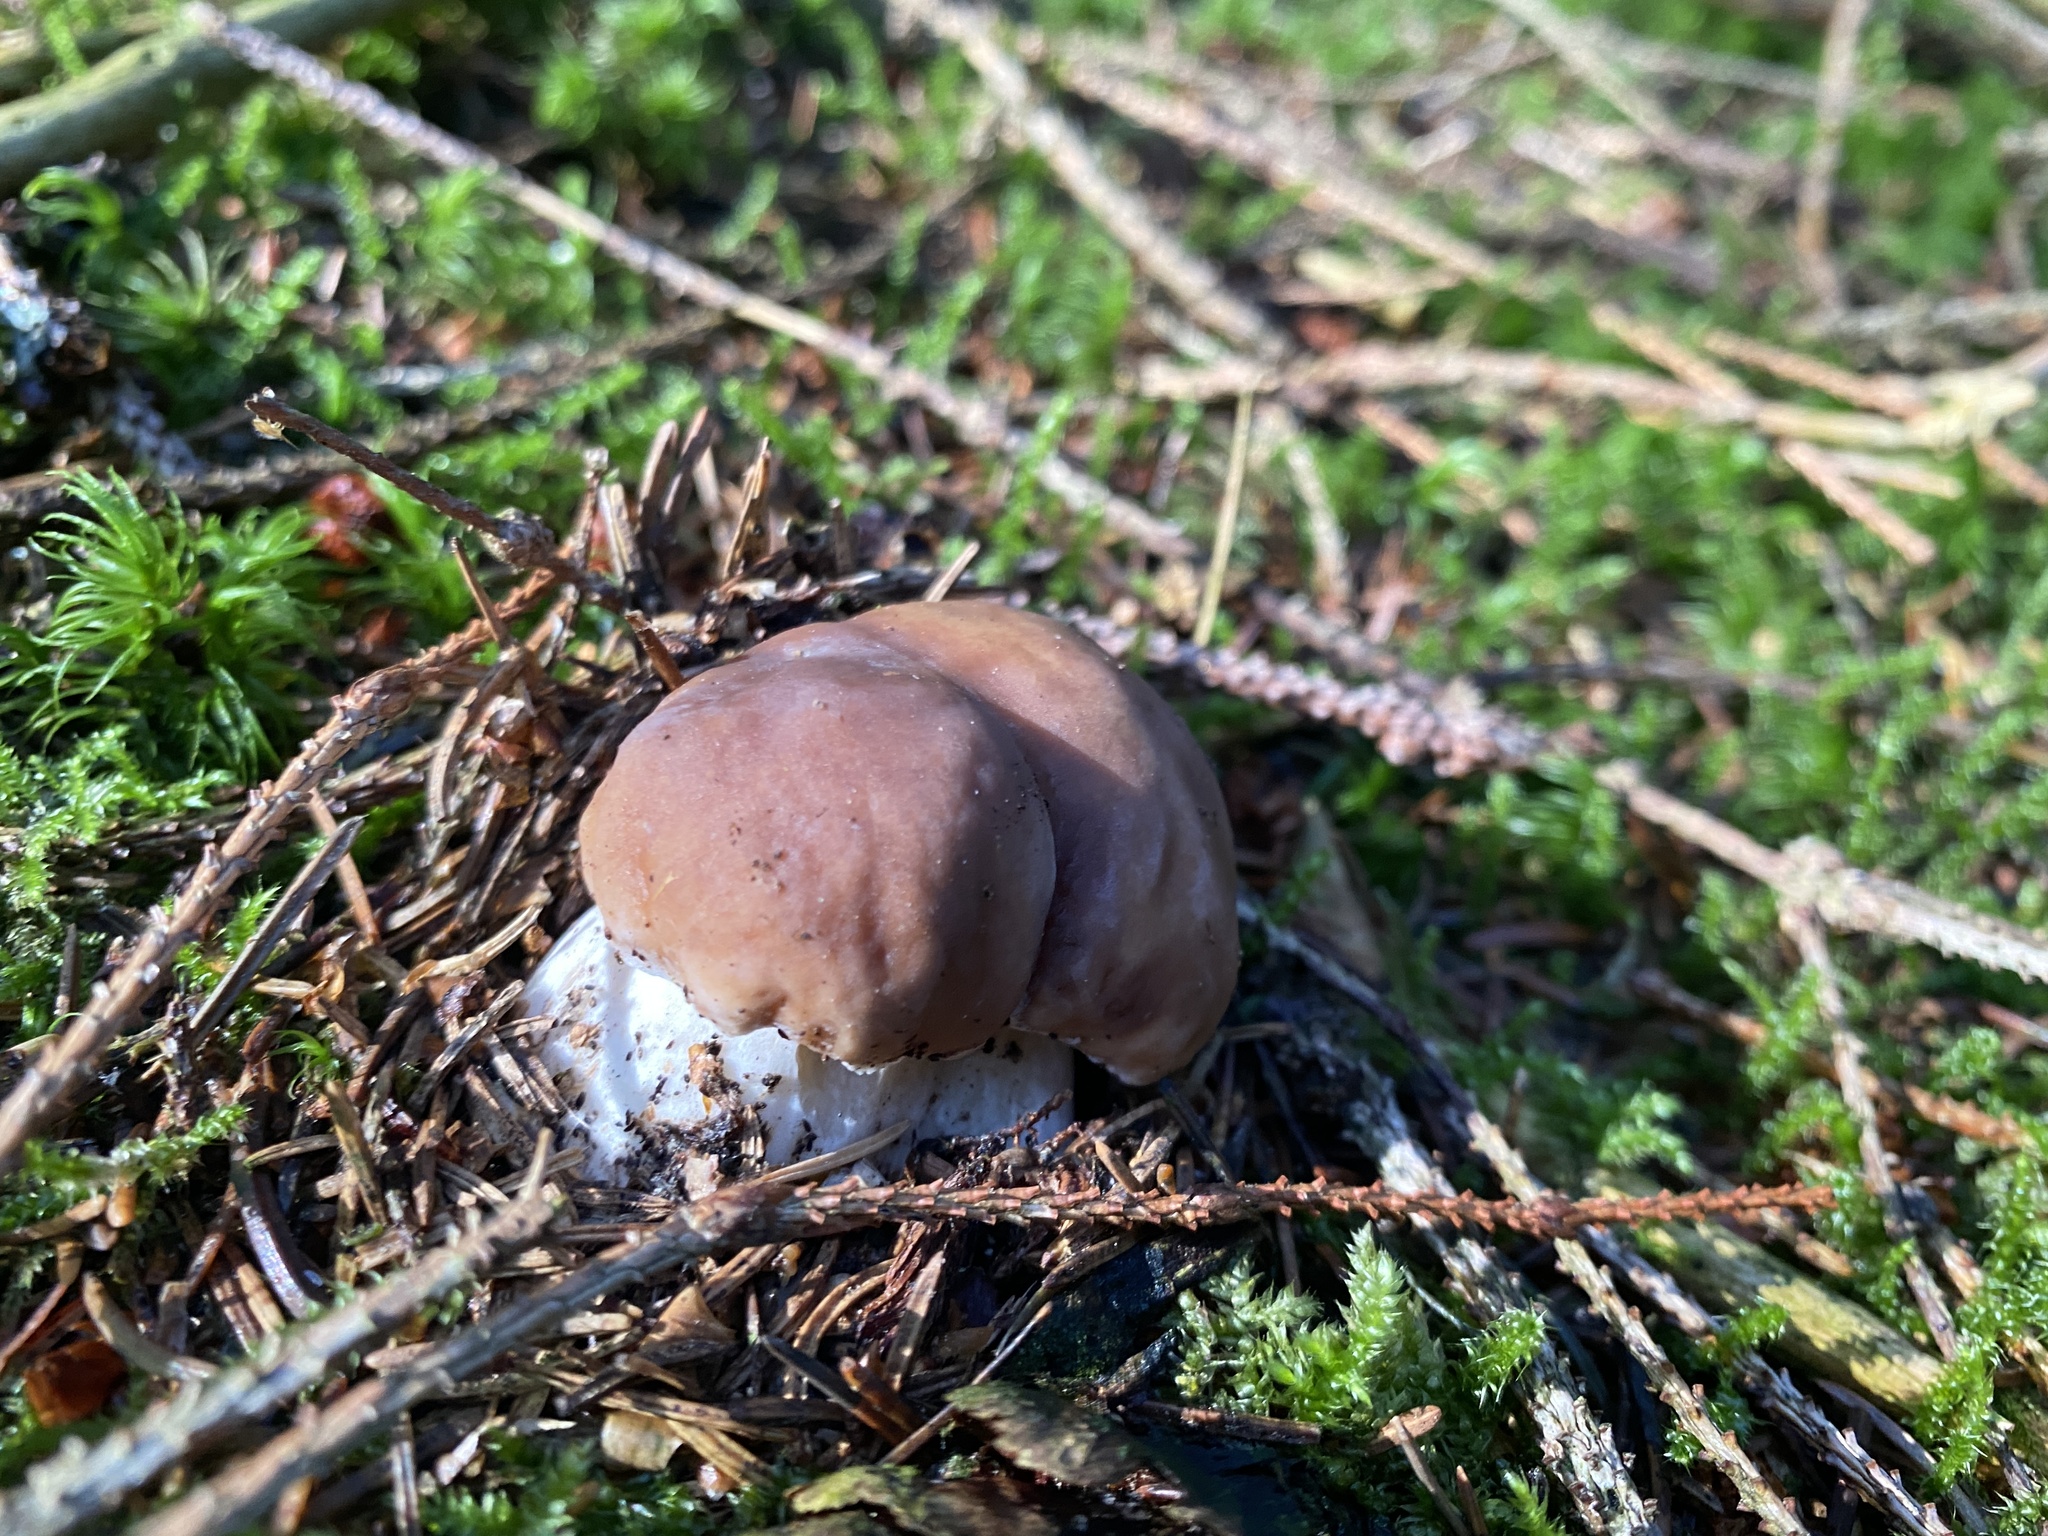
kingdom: Fungi
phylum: Basidiomycota
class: Agaricomycetes
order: Boletales
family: Boletaceae
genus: Boletus
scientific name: Boletus edulis
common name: Cep
